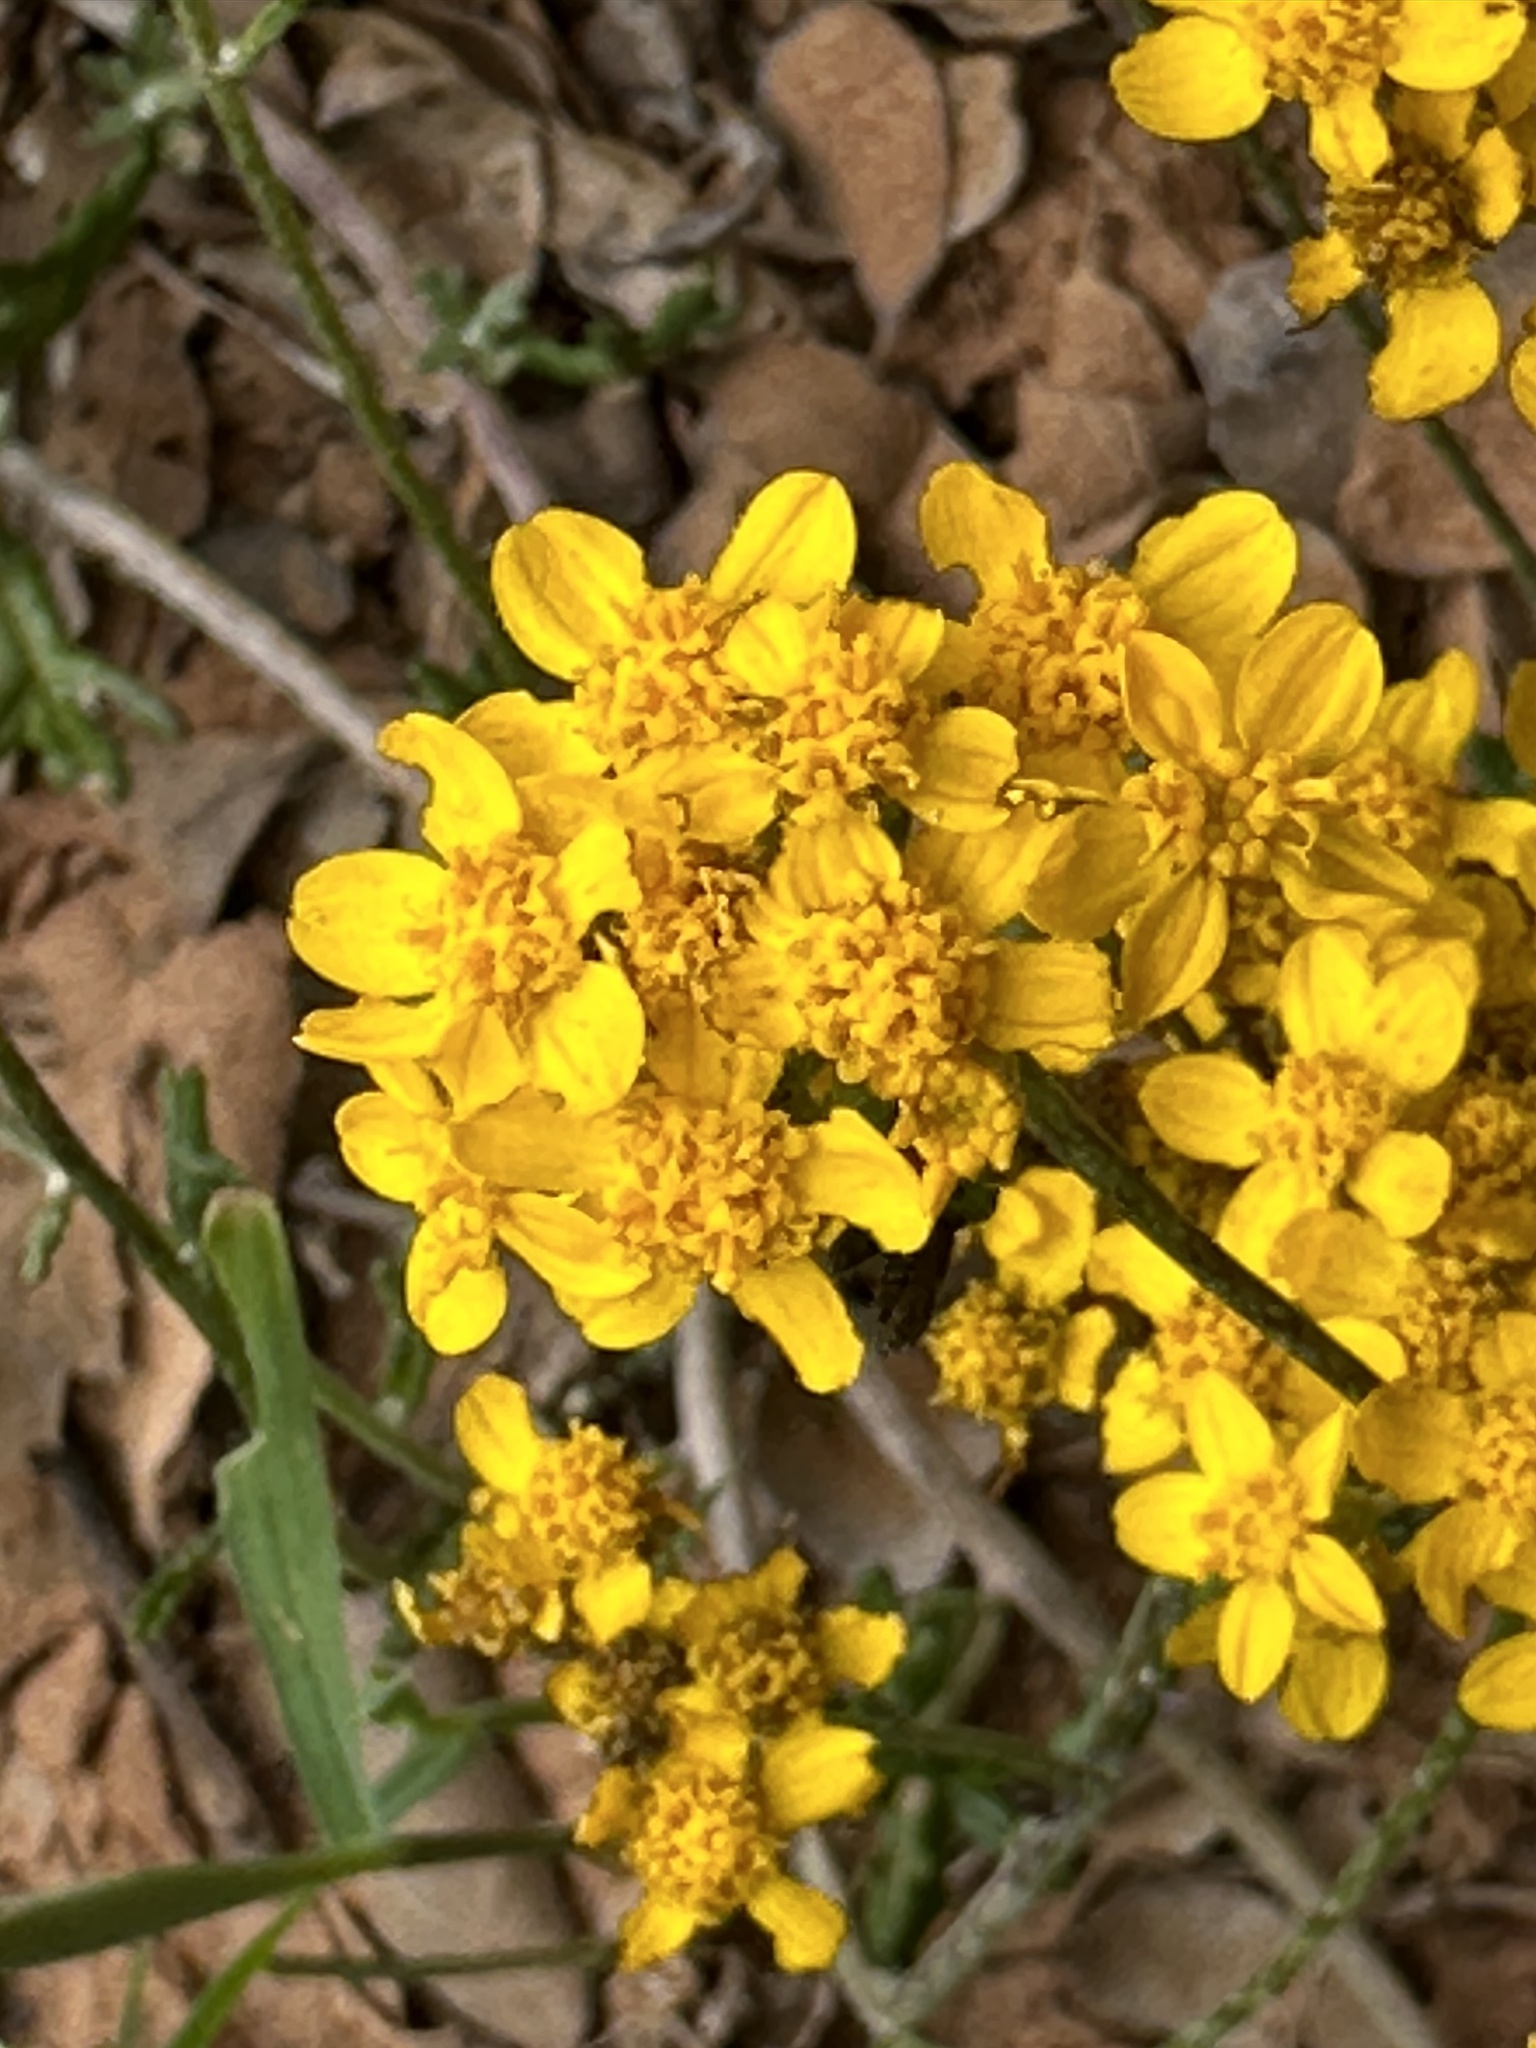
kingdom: Plantae
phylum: Tracheophyta
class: Magnoliopsida
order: Asterales
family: Asteraceae
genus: Eriophyllum
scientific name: Eriophyllum confertiflorum
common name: Golden-yarrow
